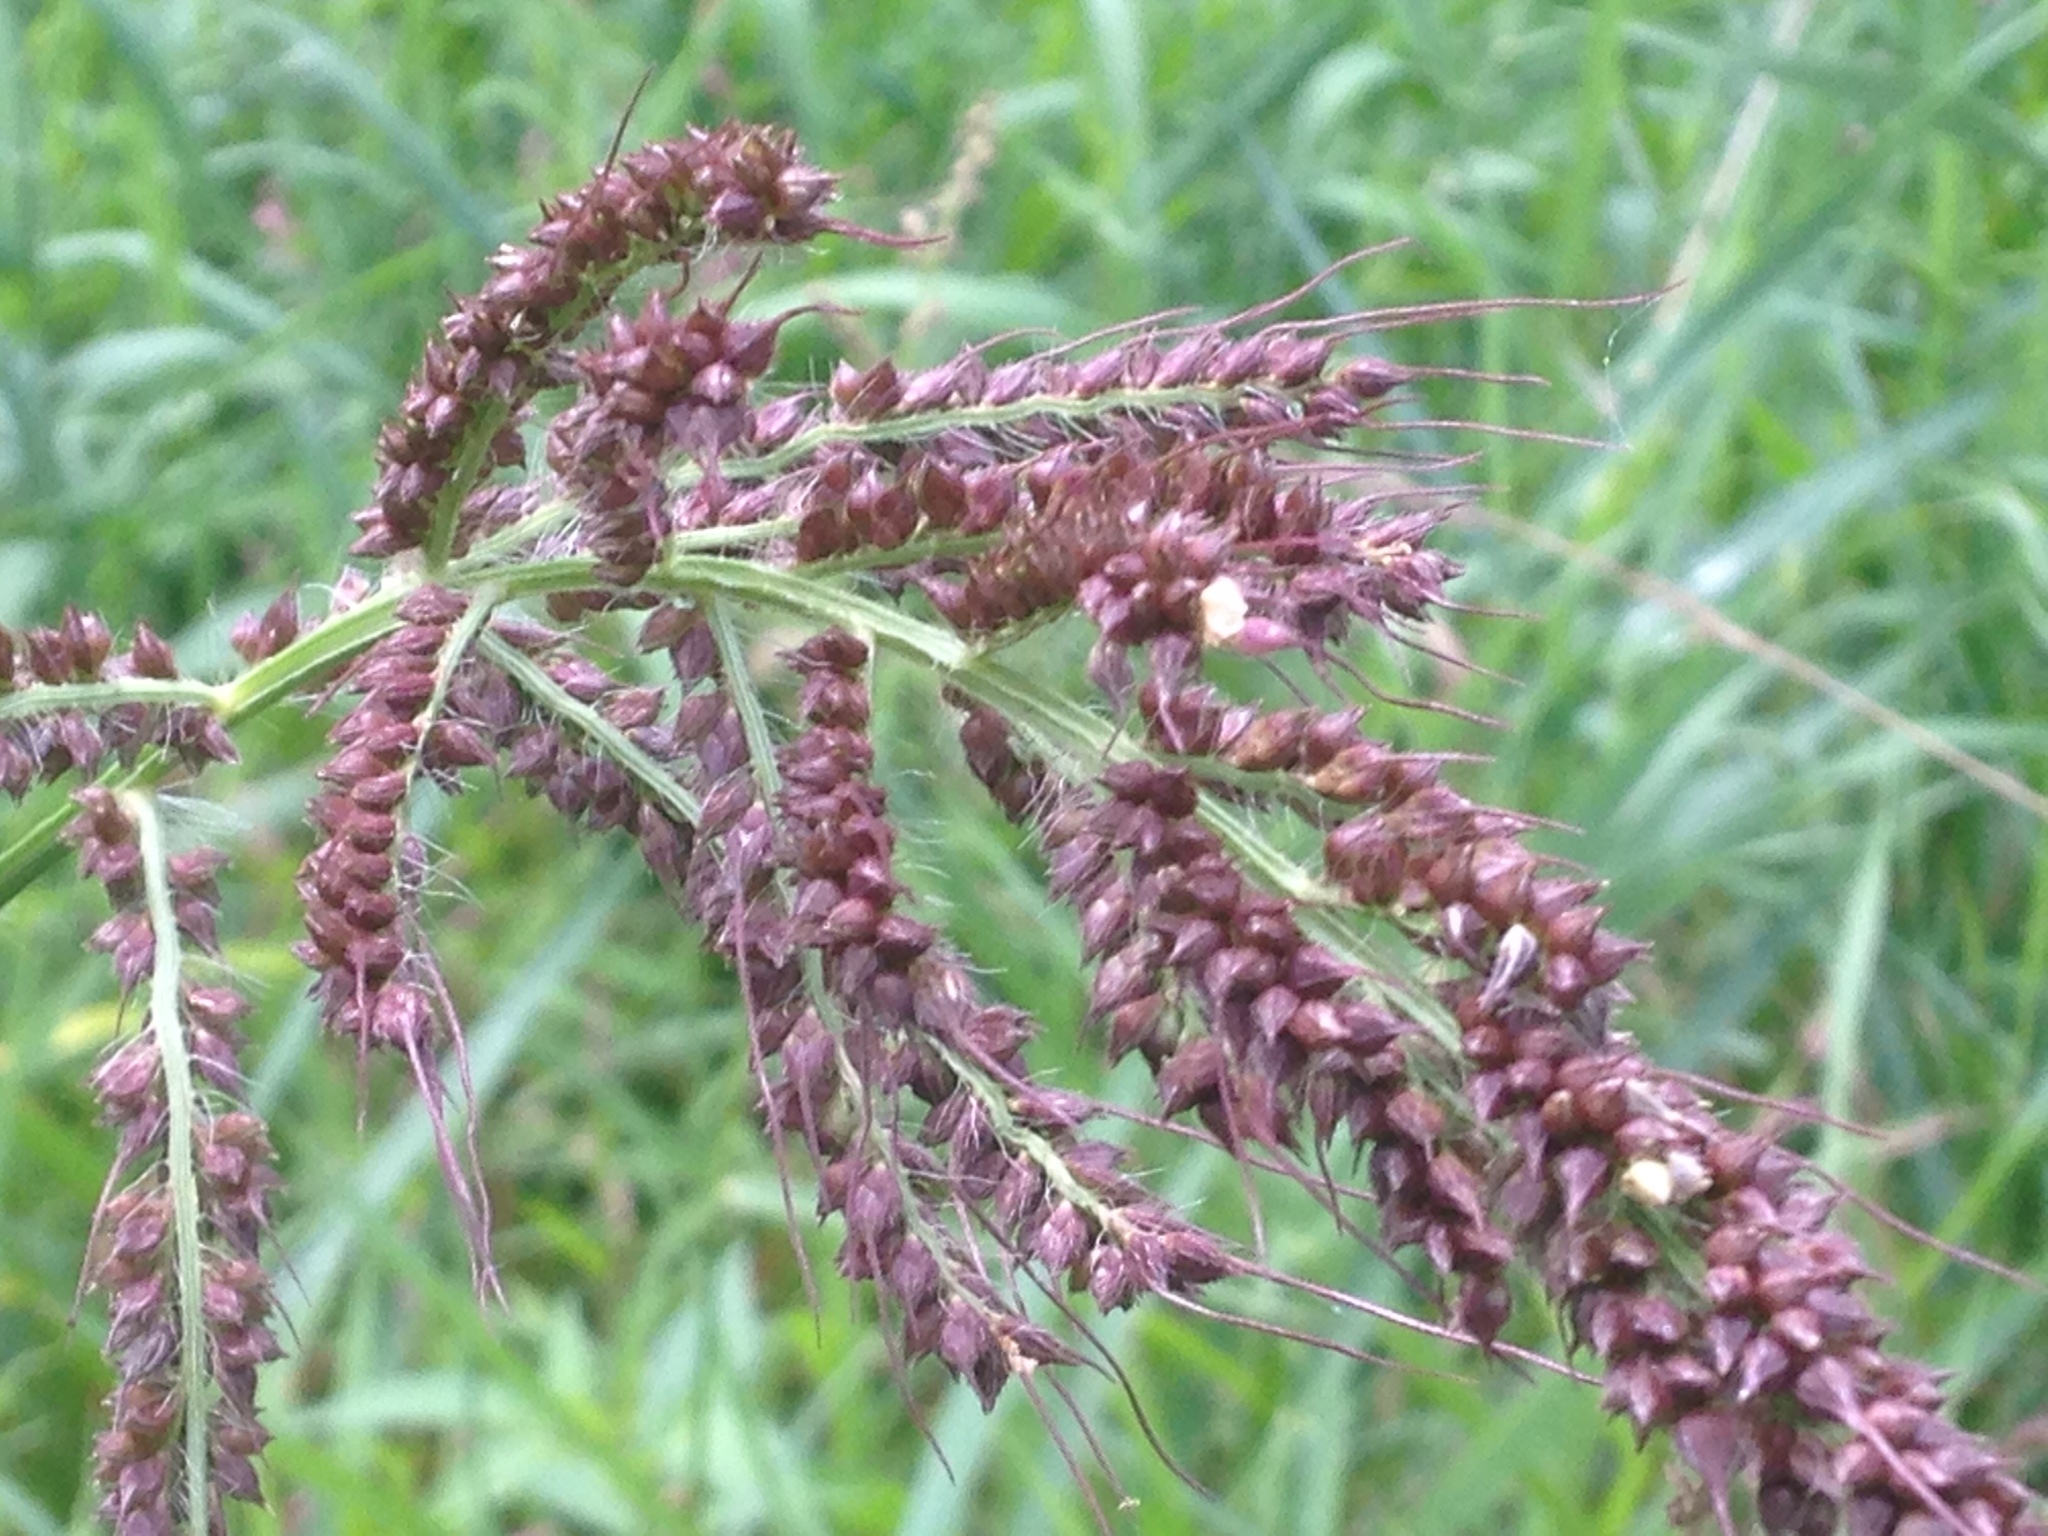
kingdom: Plantae
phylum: Tracheophyta
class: Liliopsida
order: Poales
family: Poaceae
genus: Echinochloa
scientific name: Echinochloa crus-galli
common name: Cockspur
